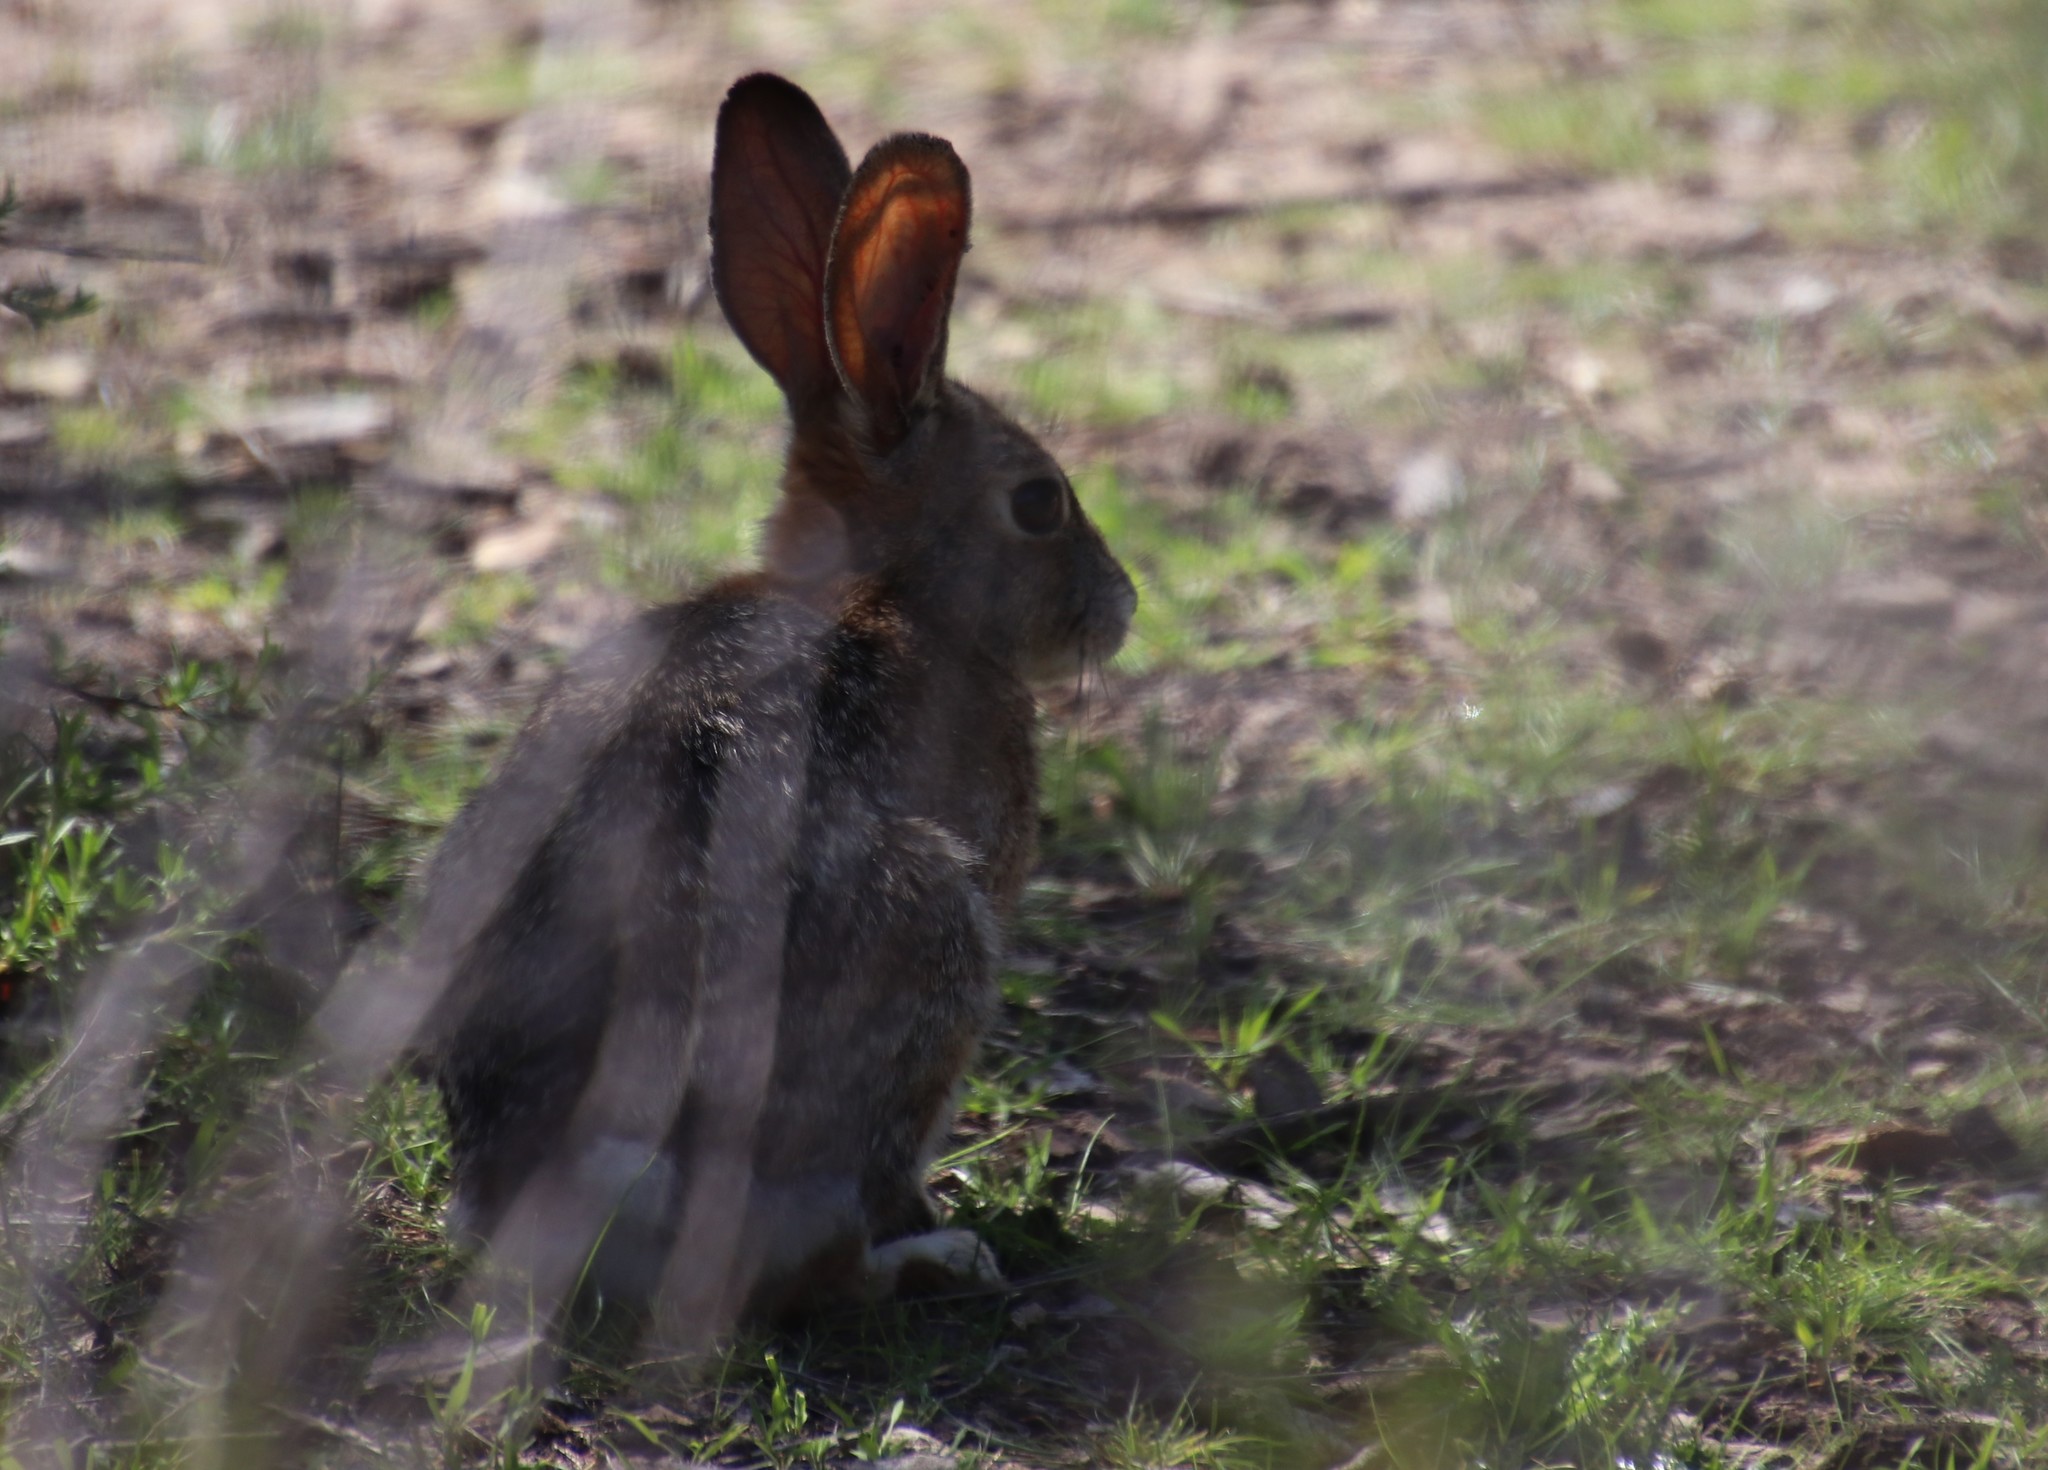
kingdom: Animalia
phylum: Chordata
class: Mammalia
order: Lagomorpha
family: Leporidae
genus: Sylvilagus
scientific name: Sylvilagus audubonii
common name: Desert cottontail
